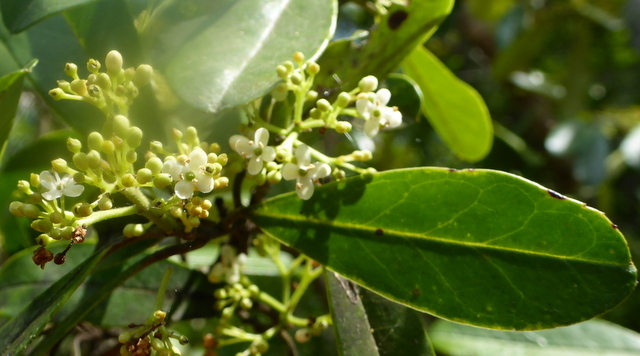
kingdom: Plantae
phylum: Tracheophyta
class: Magnoliopsida
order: Aquifoliales
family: Aquifoliaceae
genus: Ilex
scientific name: Ilex cassine
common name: Dahoon
